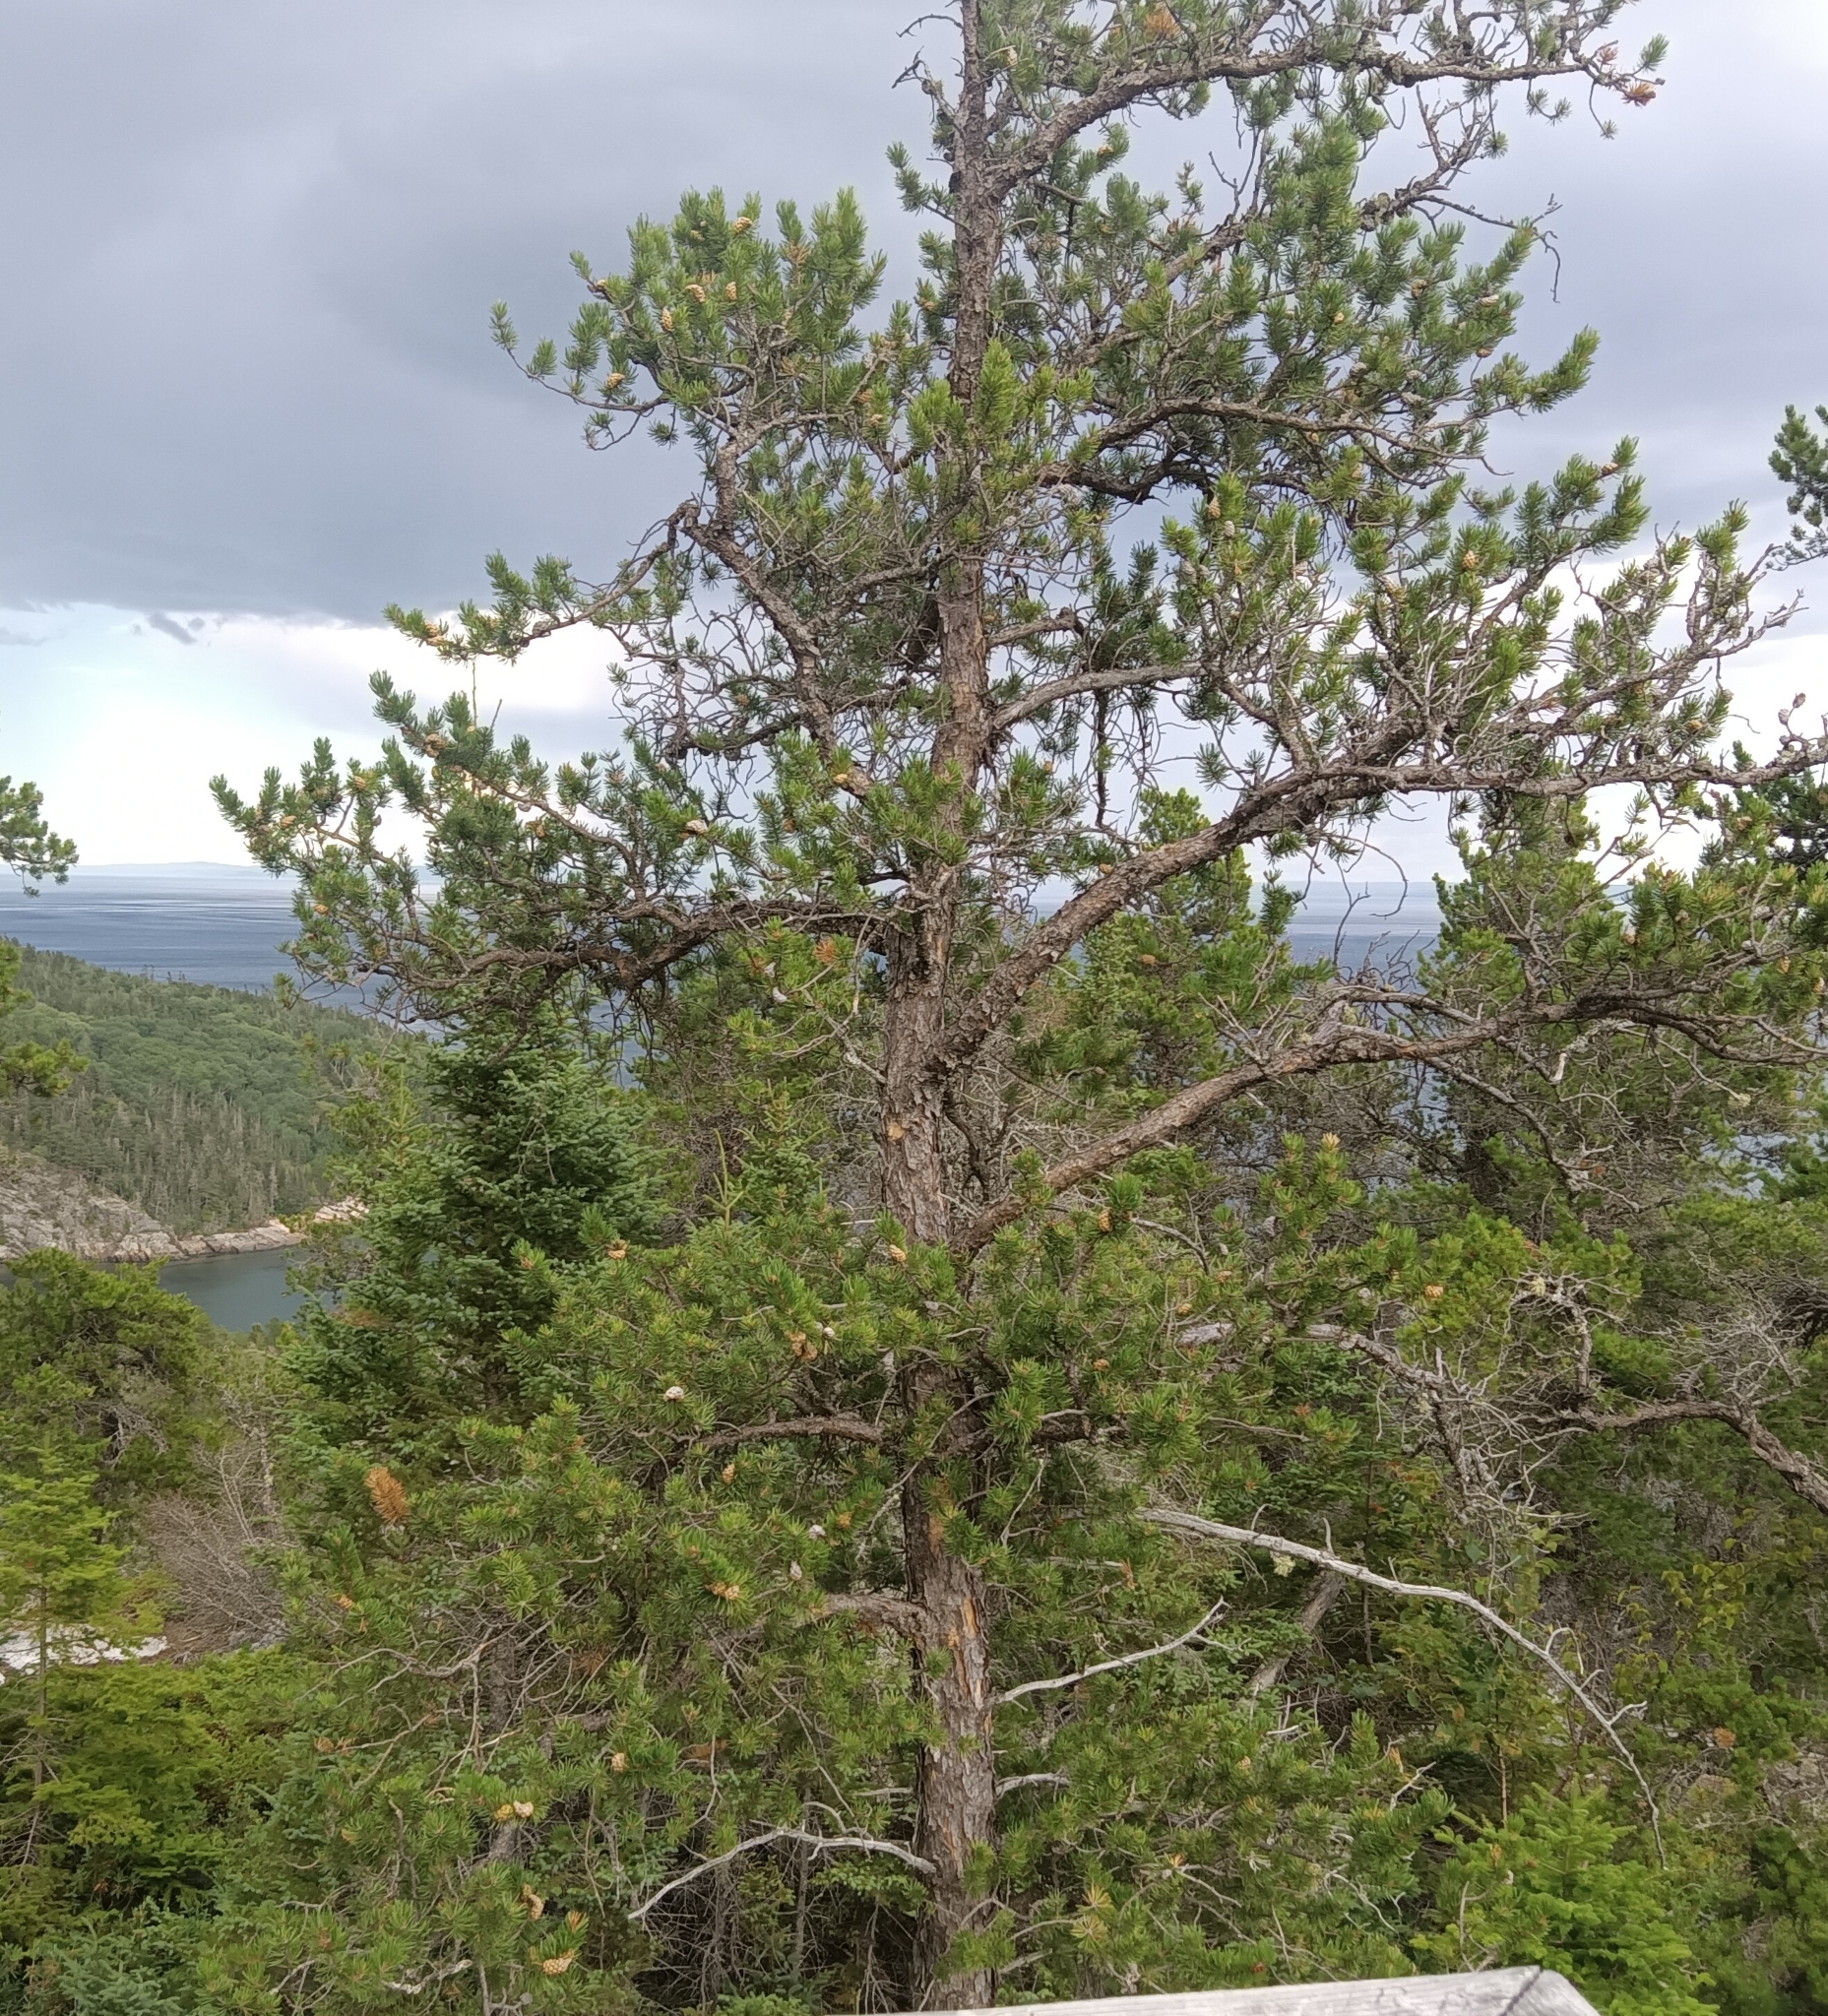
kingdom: Plantae
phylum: Tracheophyta
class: Pinopsida
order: Pinales
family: Pinaceae
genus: Pinus
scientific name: Pinus banksiana
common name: Jack pine
